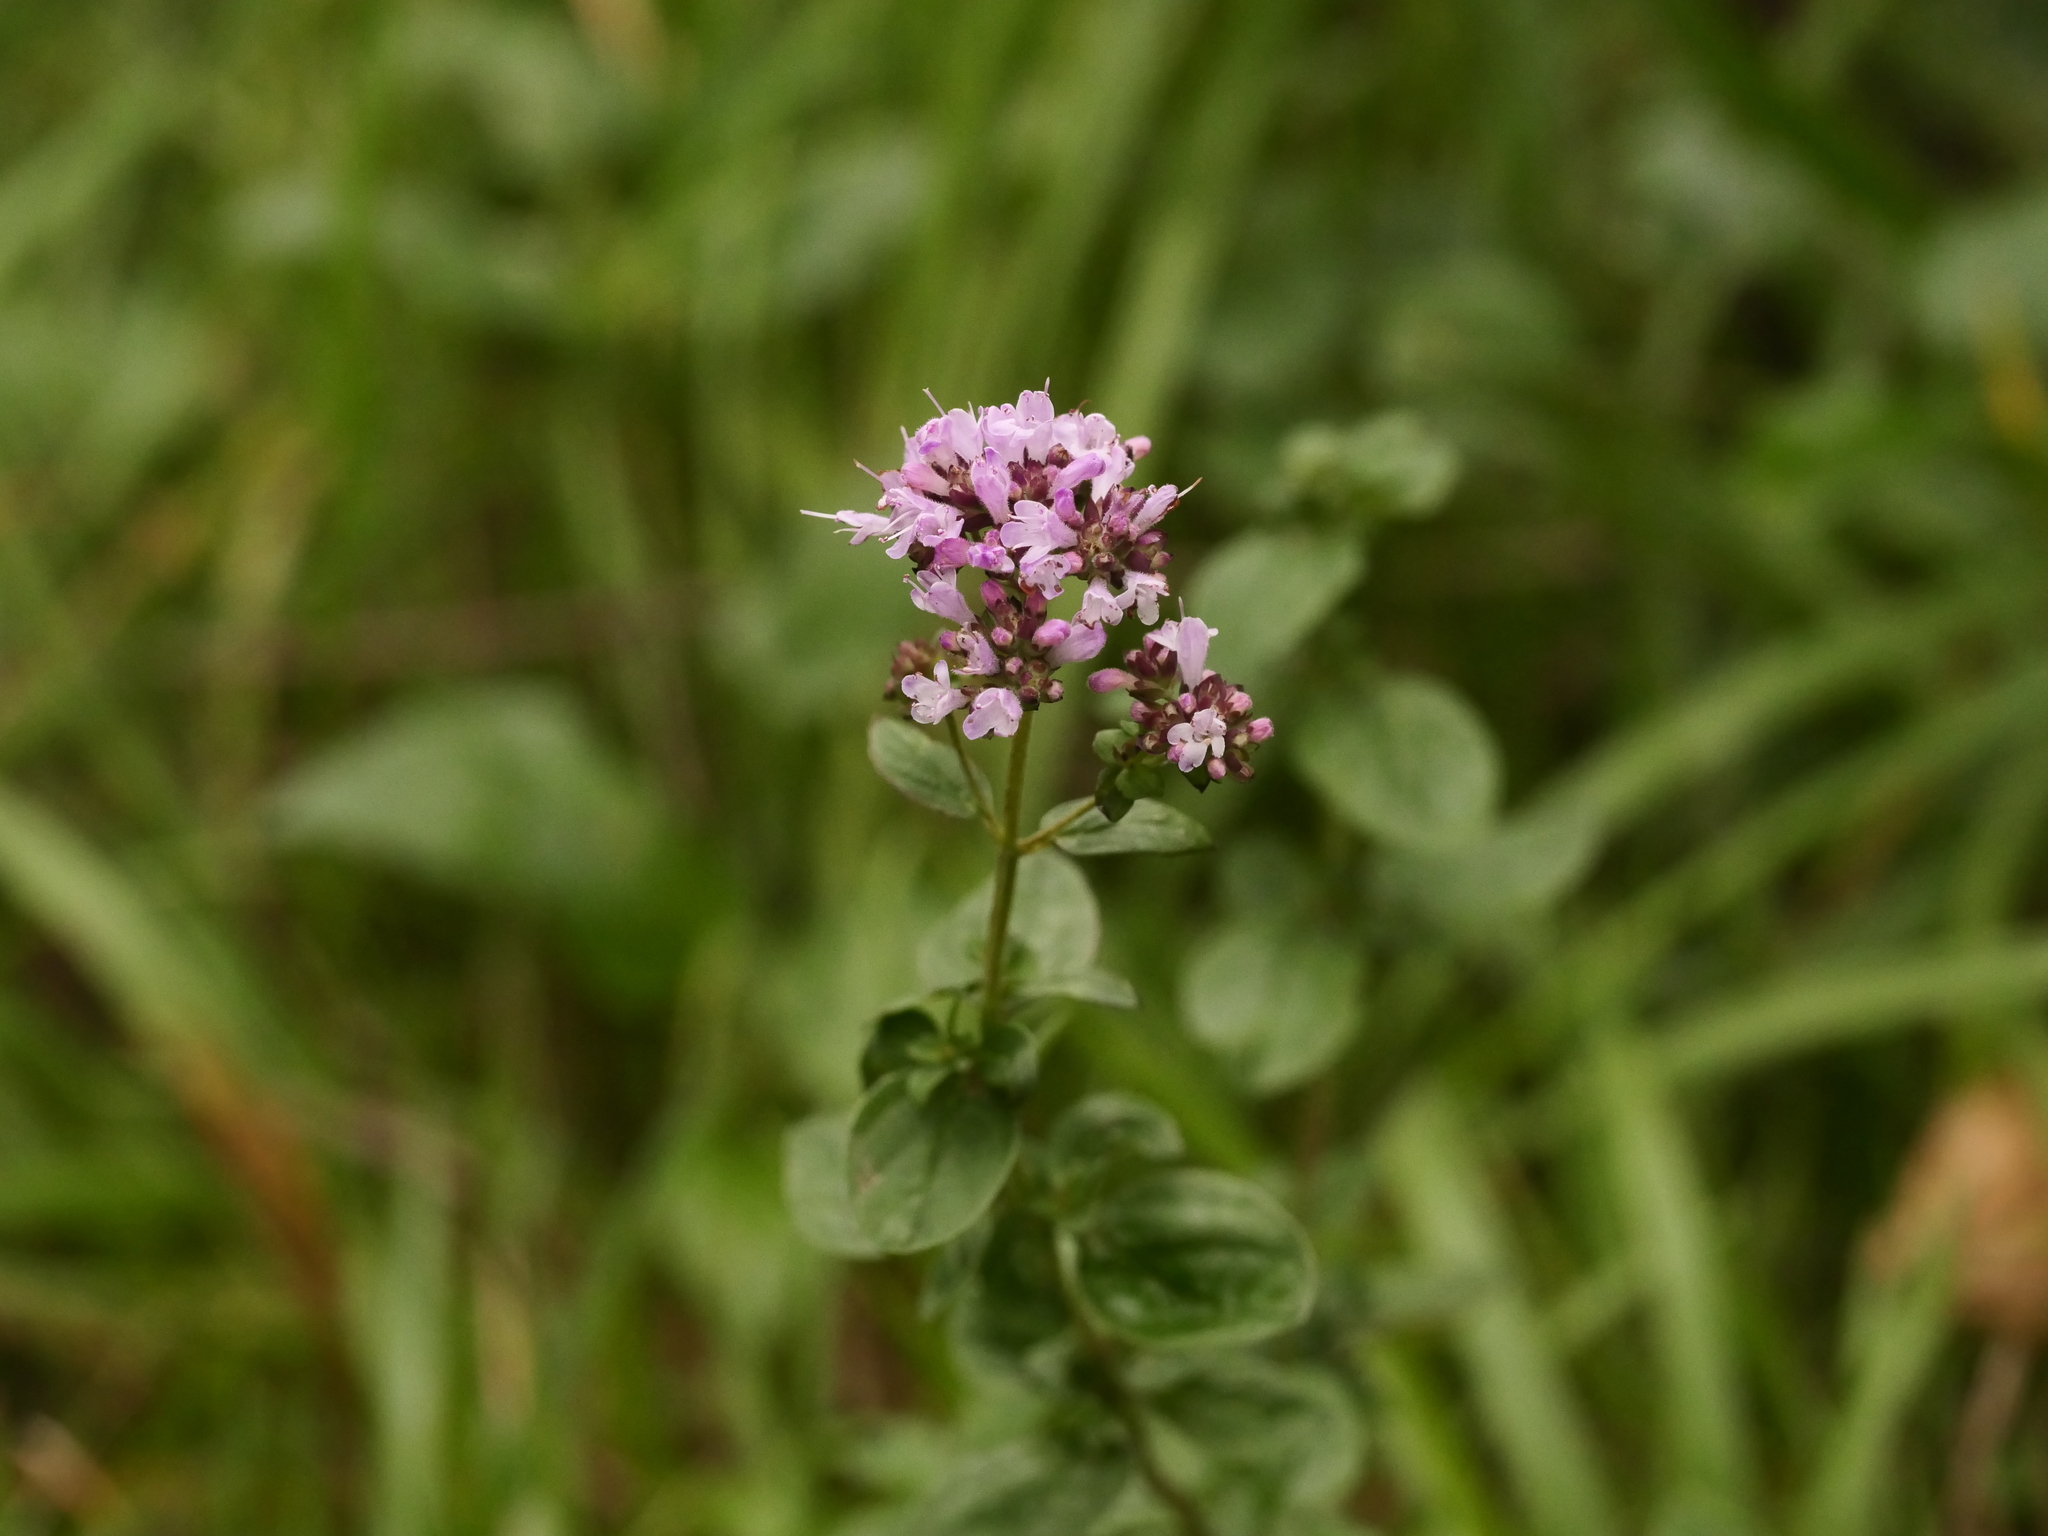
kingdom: Plantae
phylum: Tracheophyta
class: Magnoliopsida
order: Lamiales
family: Lamiaceae
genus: Origanum
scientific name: Origanum vulgare
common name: Wild marjoram
